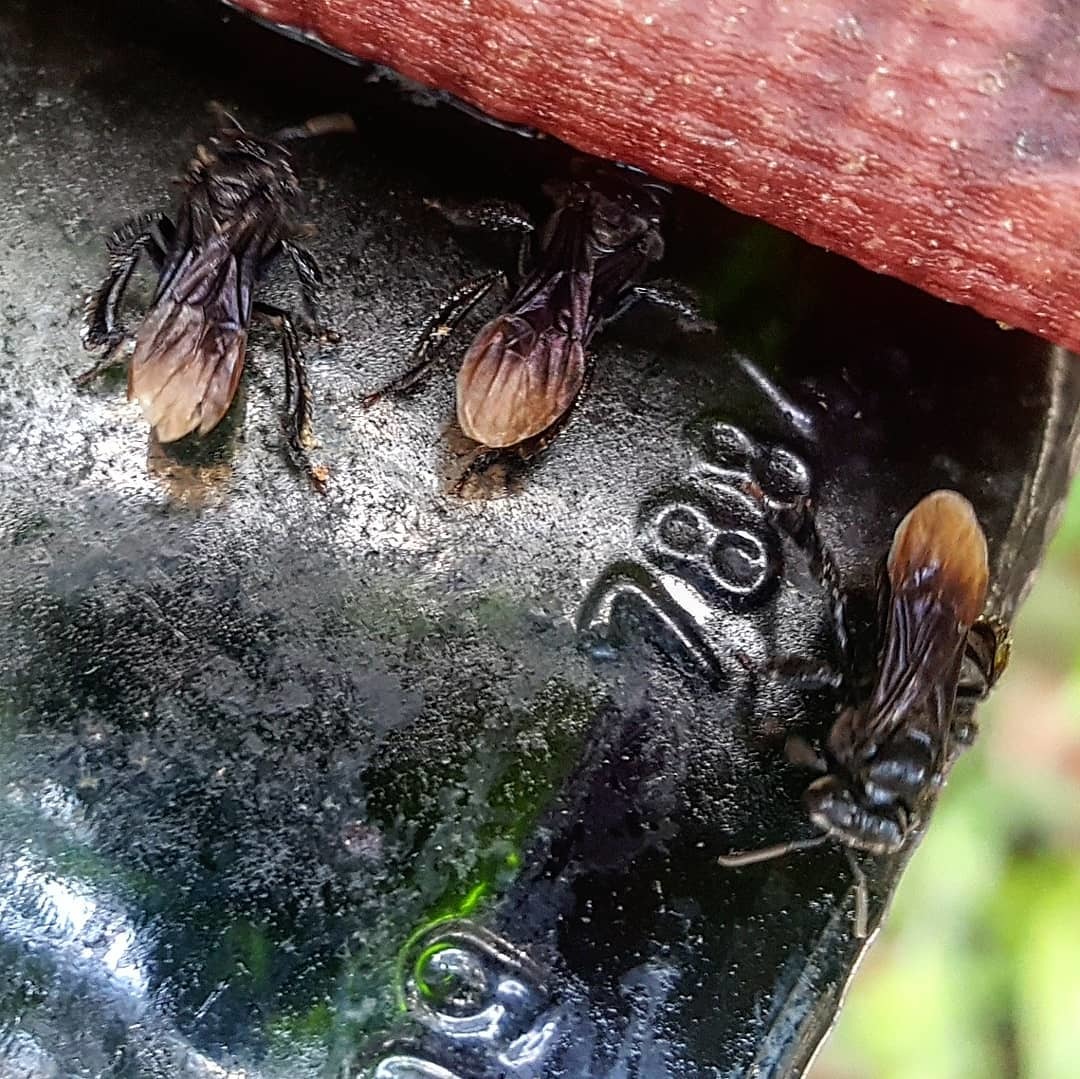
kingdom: Animalia
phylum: Arthropoda
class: Insecta
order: Hymenoptera
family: Apidae
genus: Trigona
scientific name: Trigona nigerrima
